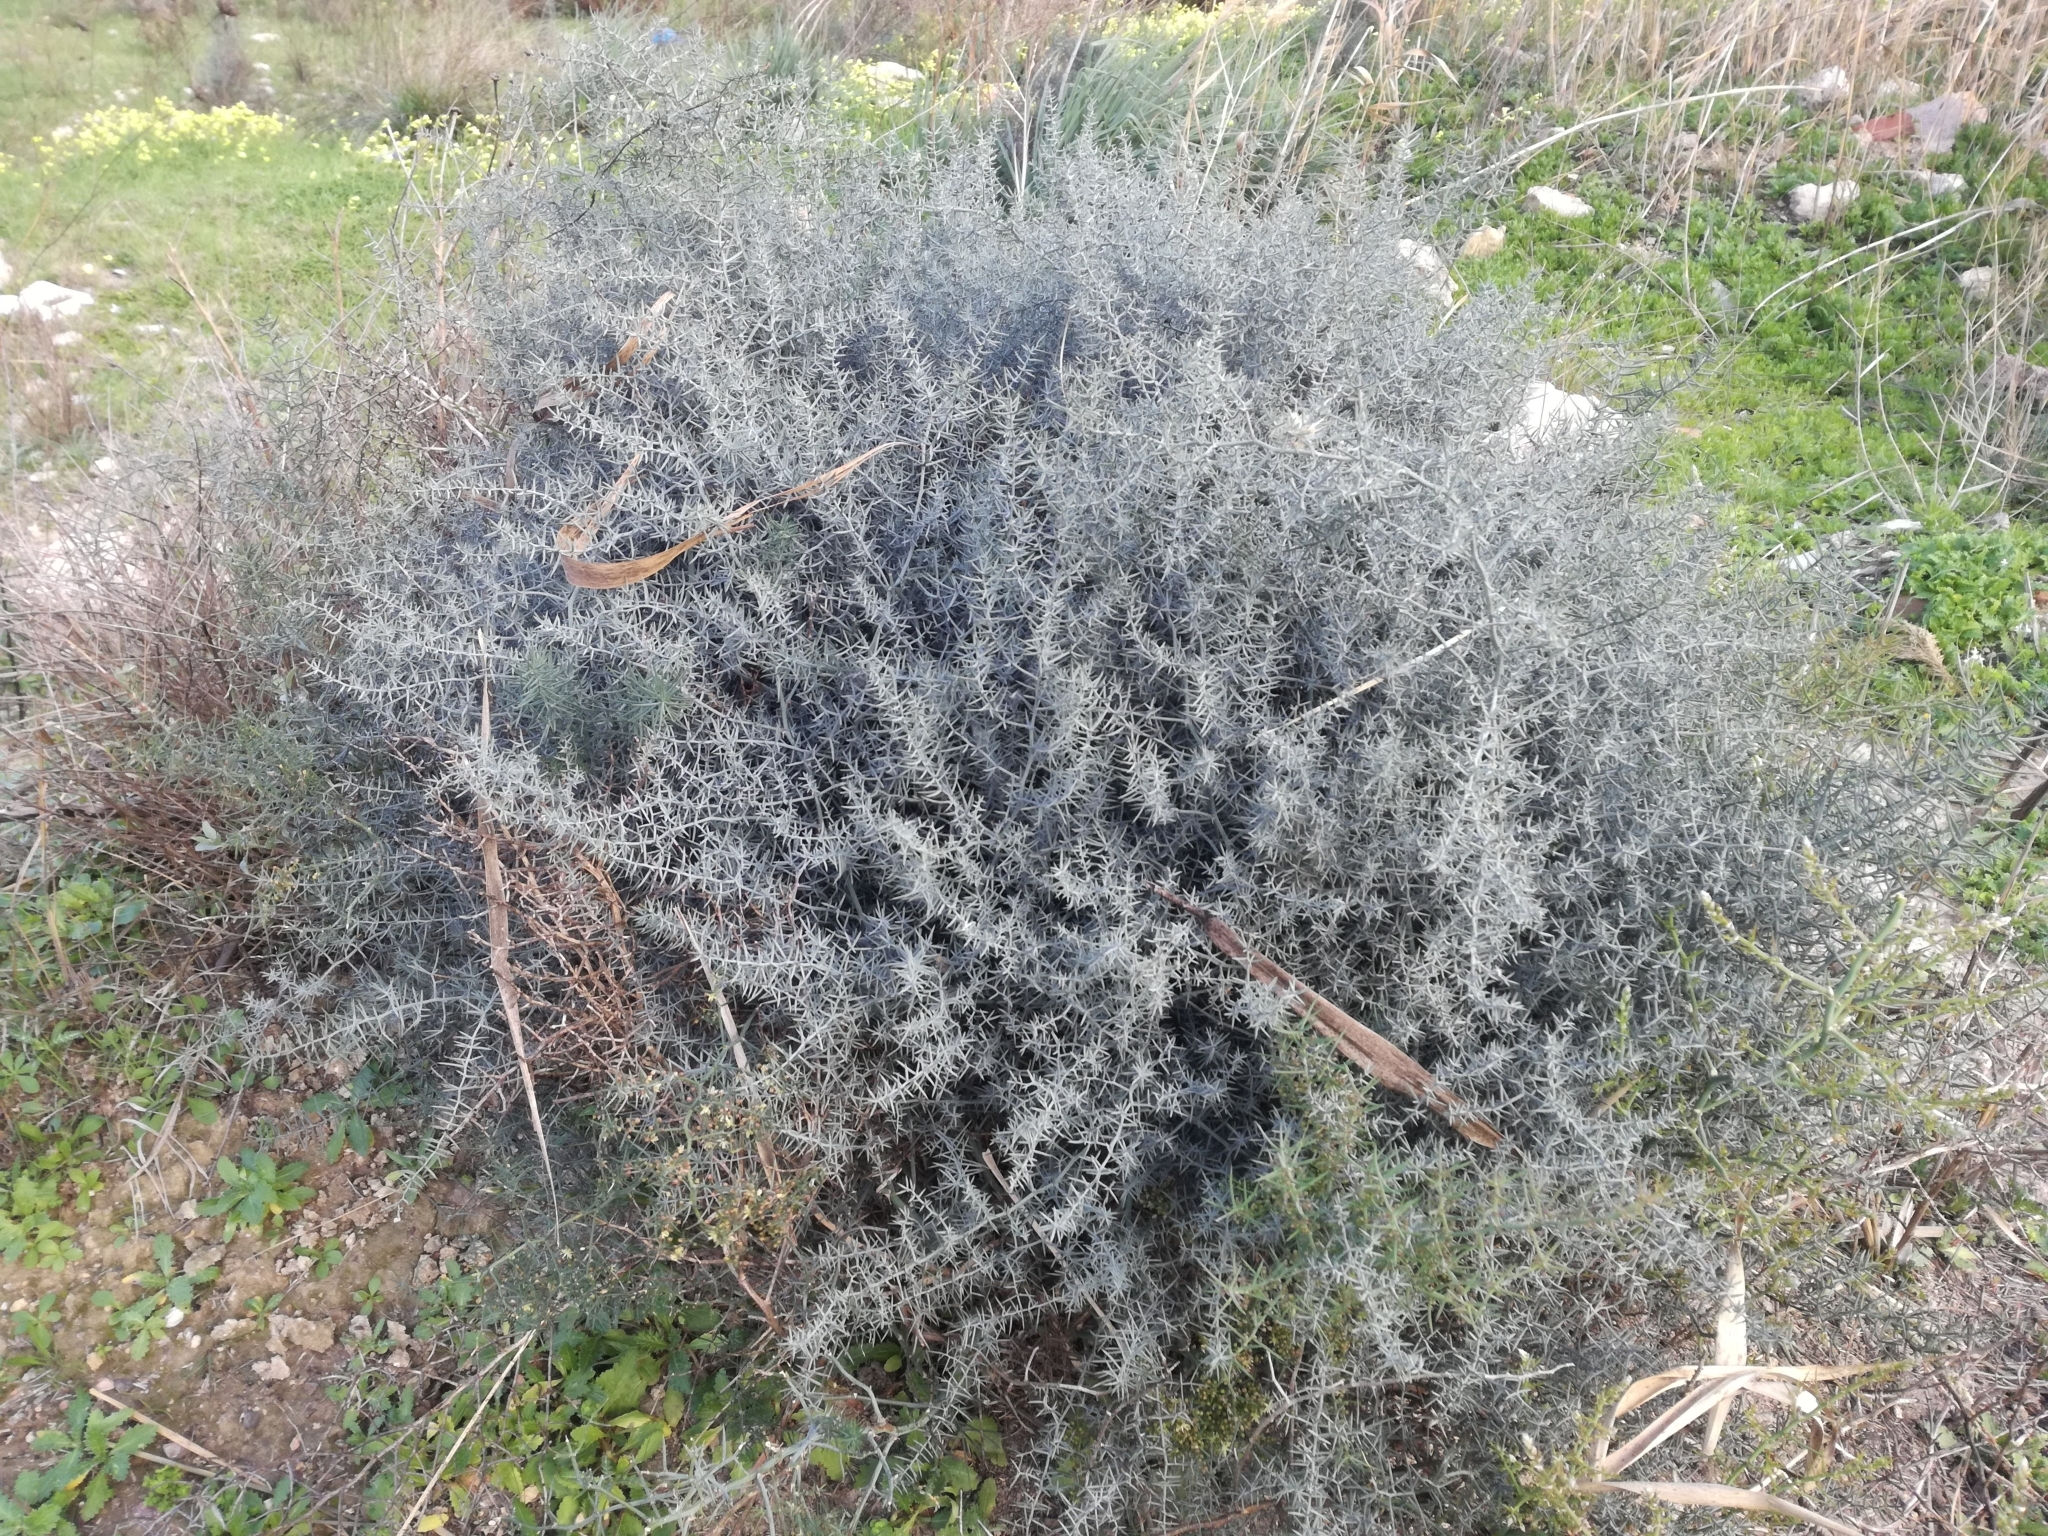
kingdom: Plantae
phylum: Tracheophyta
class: Liliopsida
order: Asparagales
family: Asparagaceae
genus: Asparagus
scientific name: Asparagus horridus
